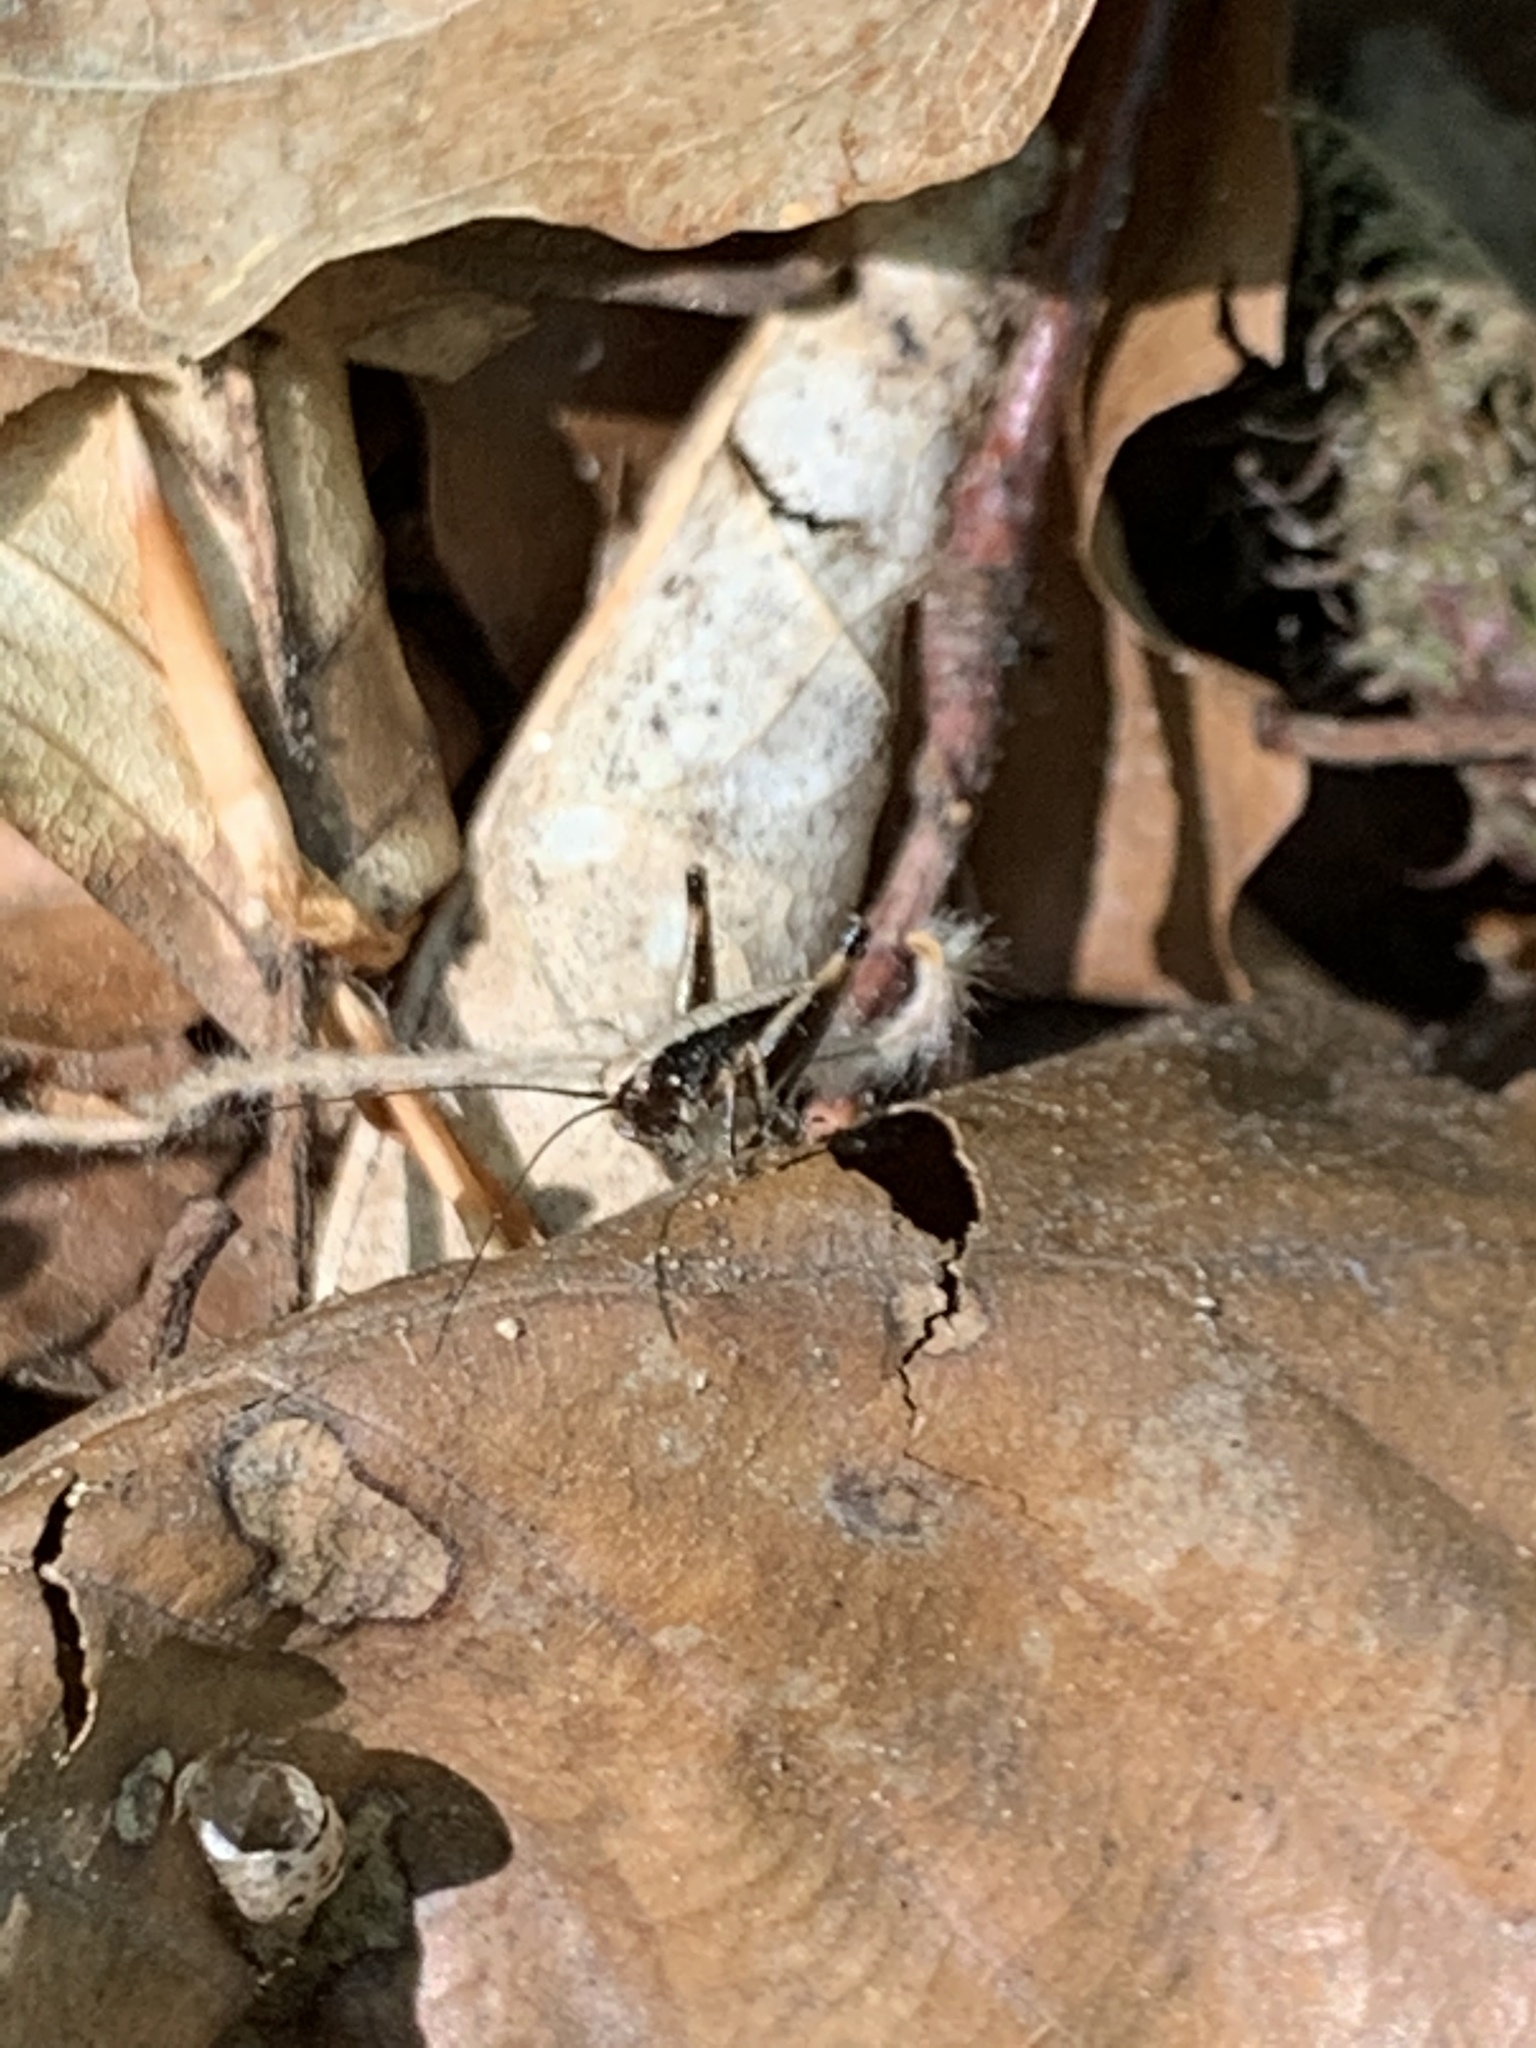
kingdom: Animalia
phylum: Arthropoda
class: Insecta
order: Orthoptera
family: Tettigoniidae
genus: Pholidoptera
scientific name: Pholidoptera griseoaptera
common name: Dark bush-cricket
